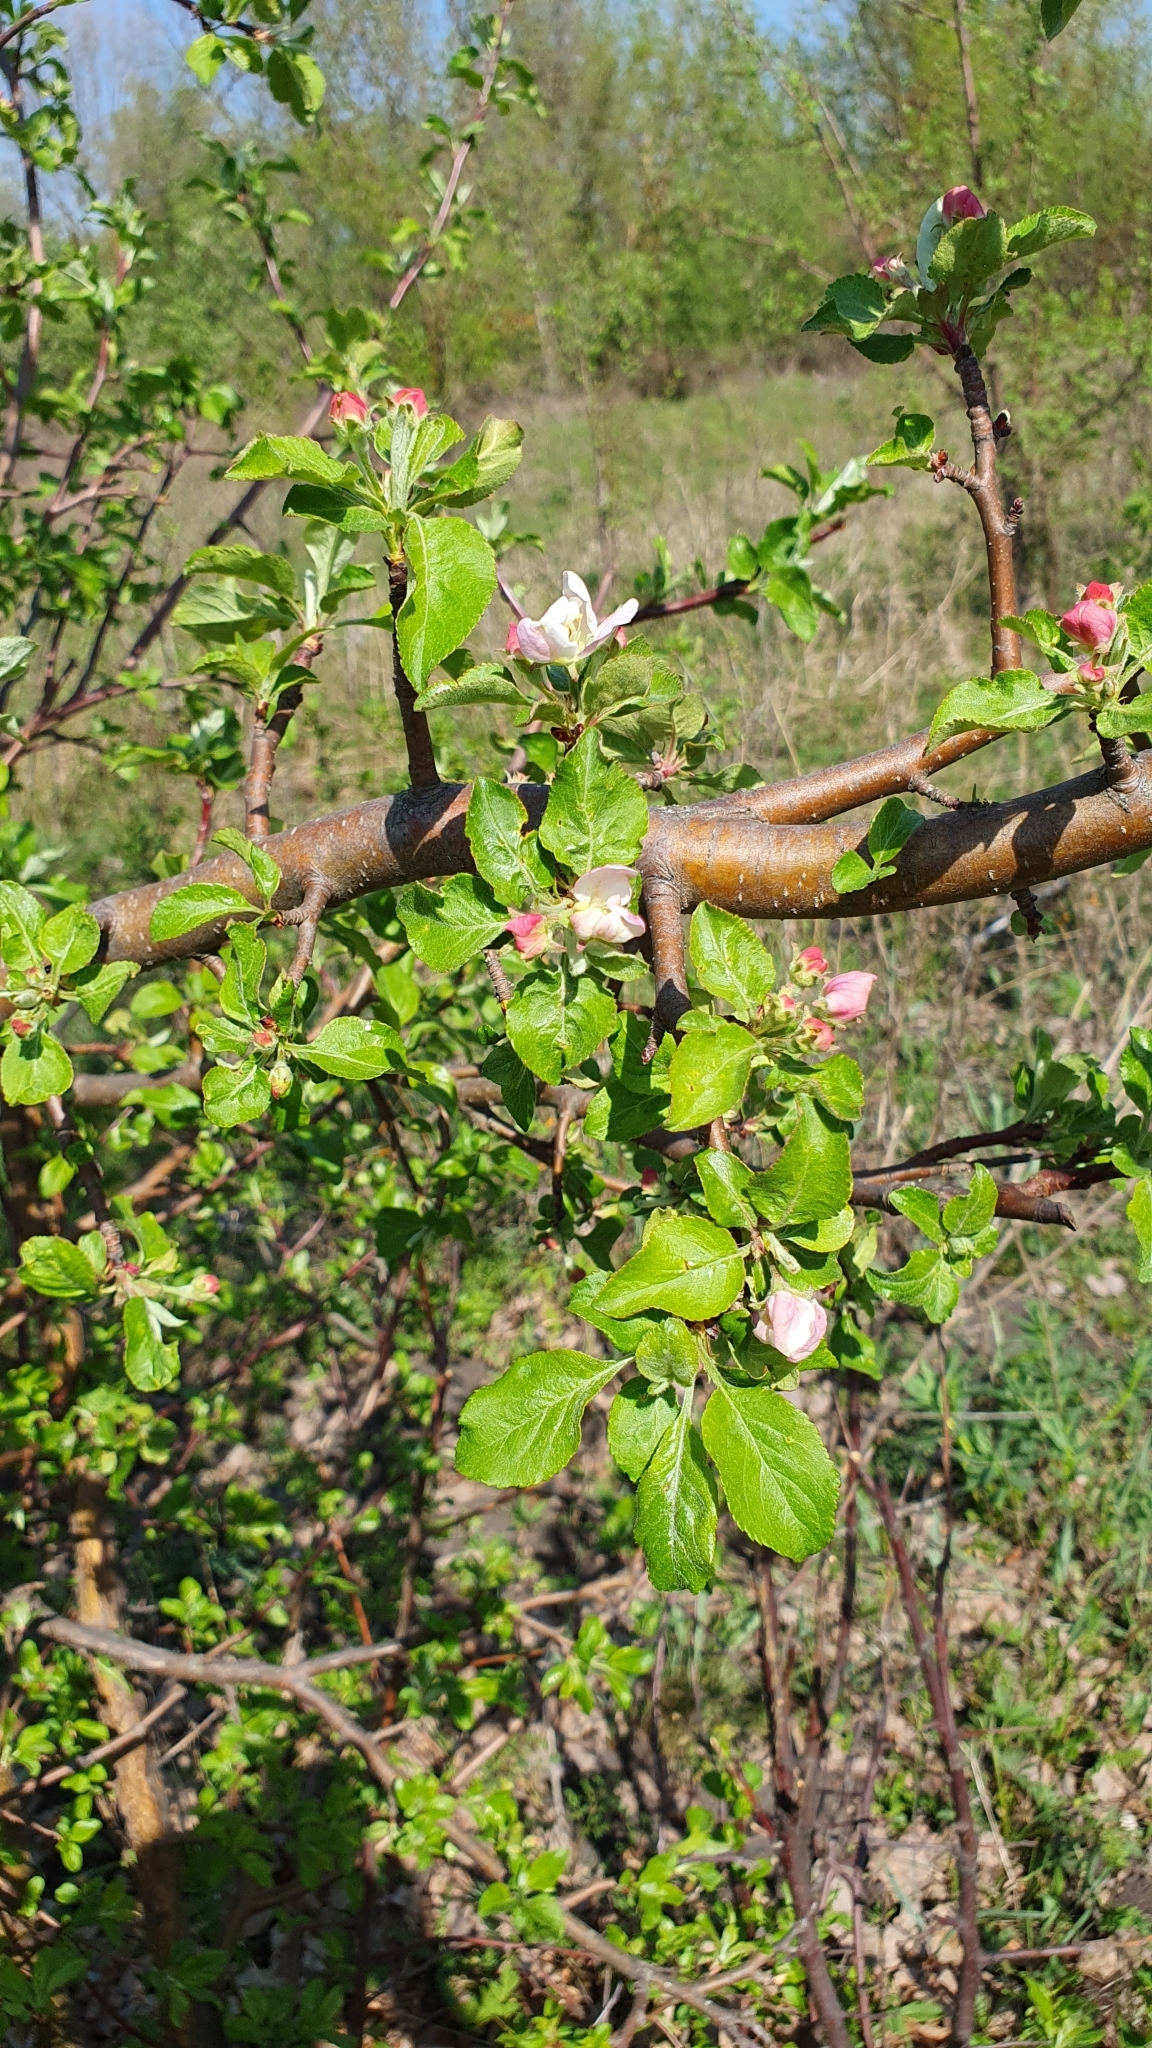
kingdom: Plantae
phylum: Tracheophyta
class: Magnoliopsida
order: Rosales
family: Rosaceae
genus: Malus
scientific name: Malus domestica
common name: Apple
